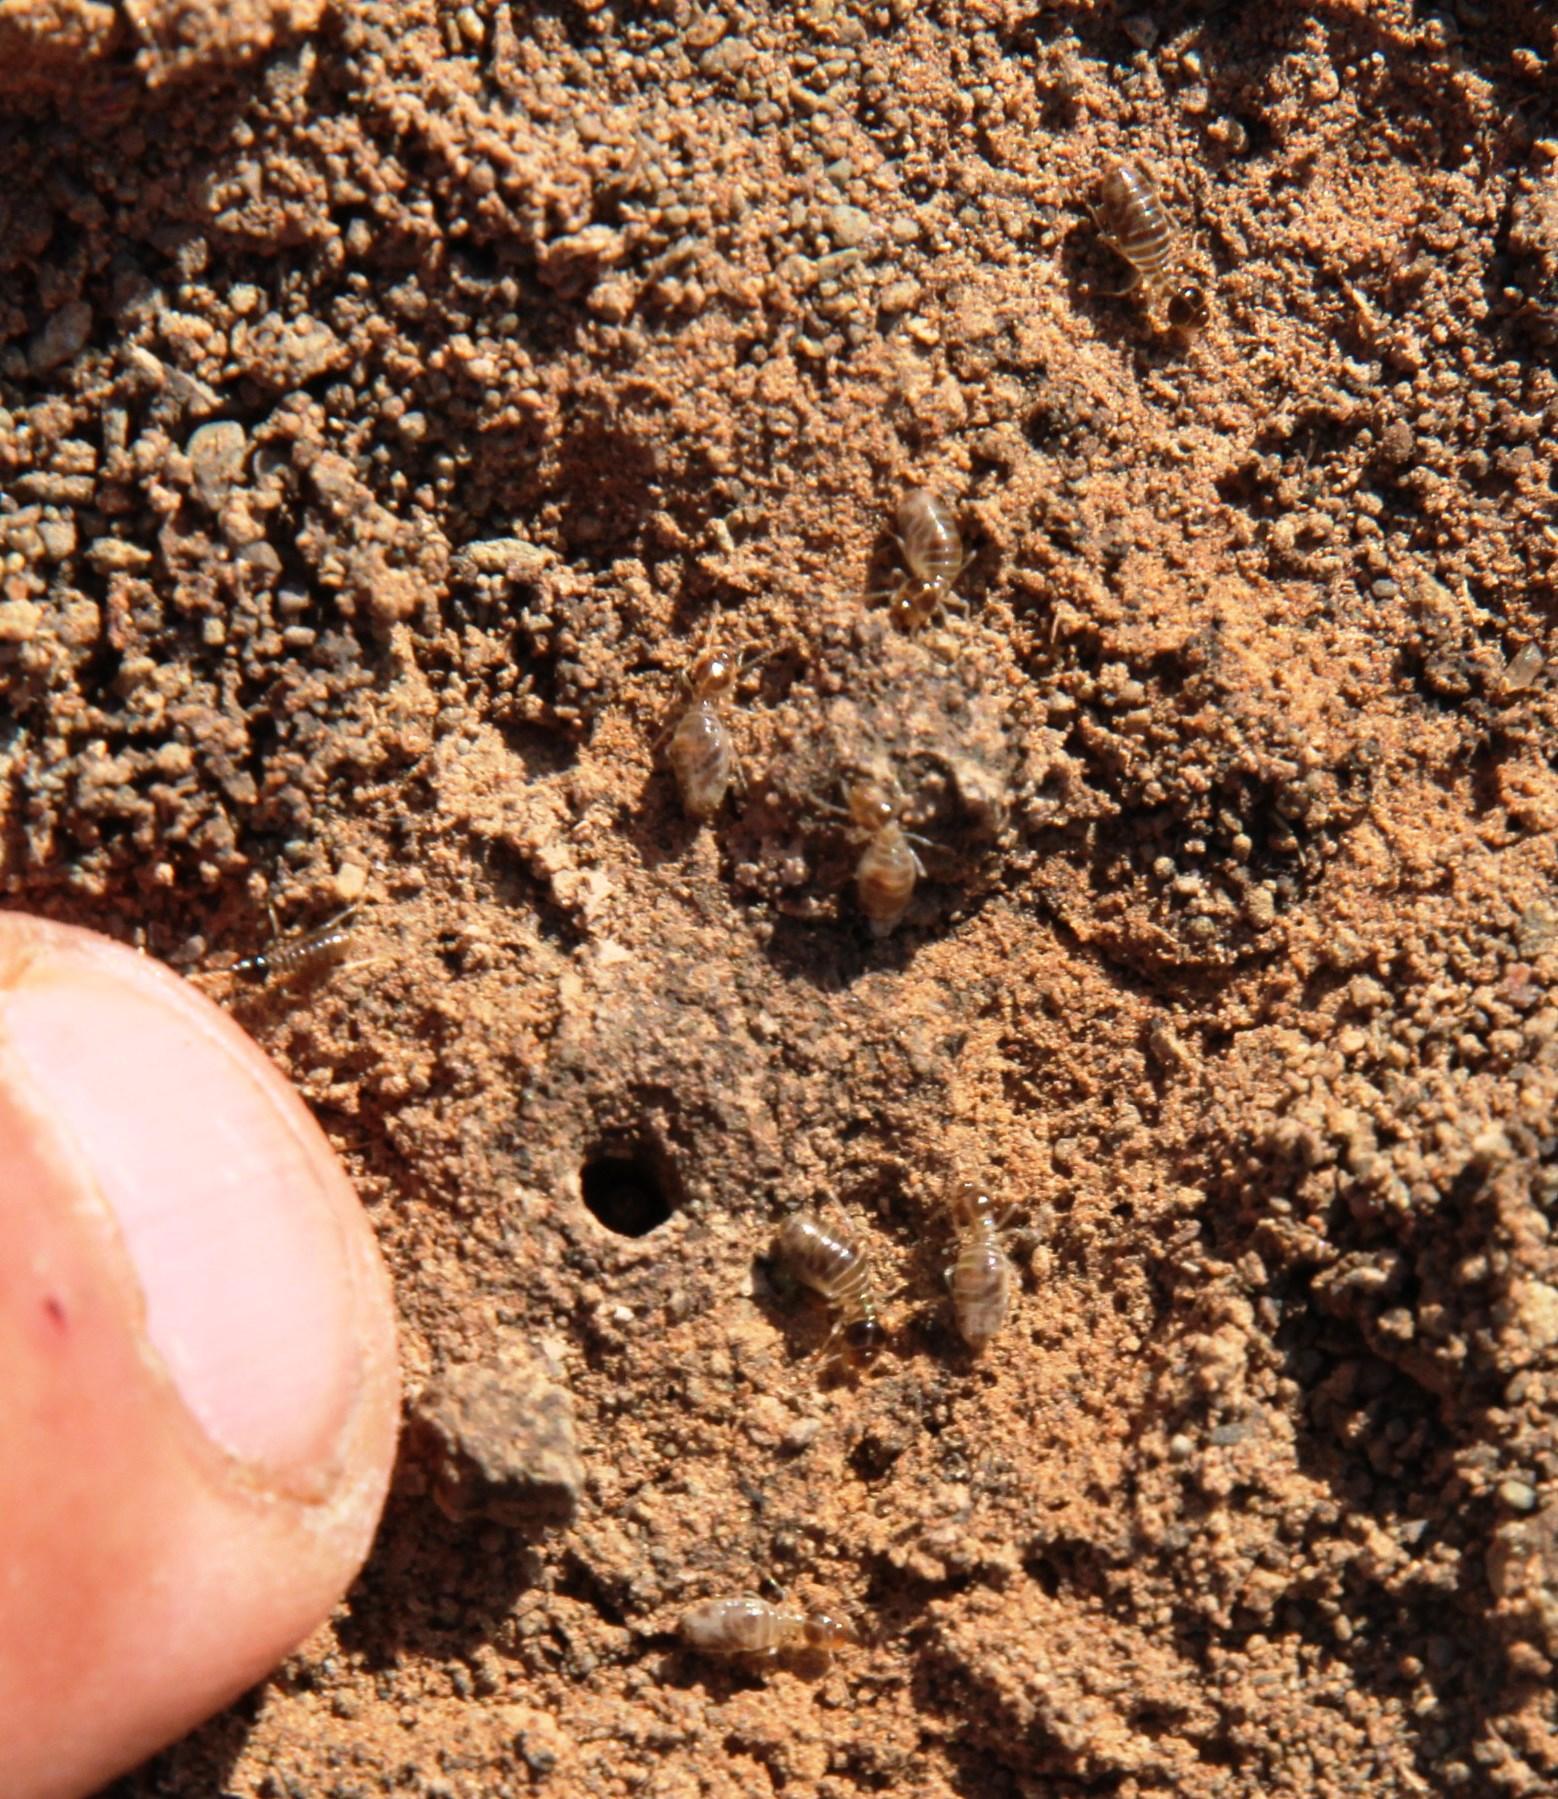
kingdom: Animalia
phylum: Arthropoda
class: Insecta
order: Blattodea
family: Termitidae
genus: Fulleritermes
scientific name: Fulleritermes mallyi
